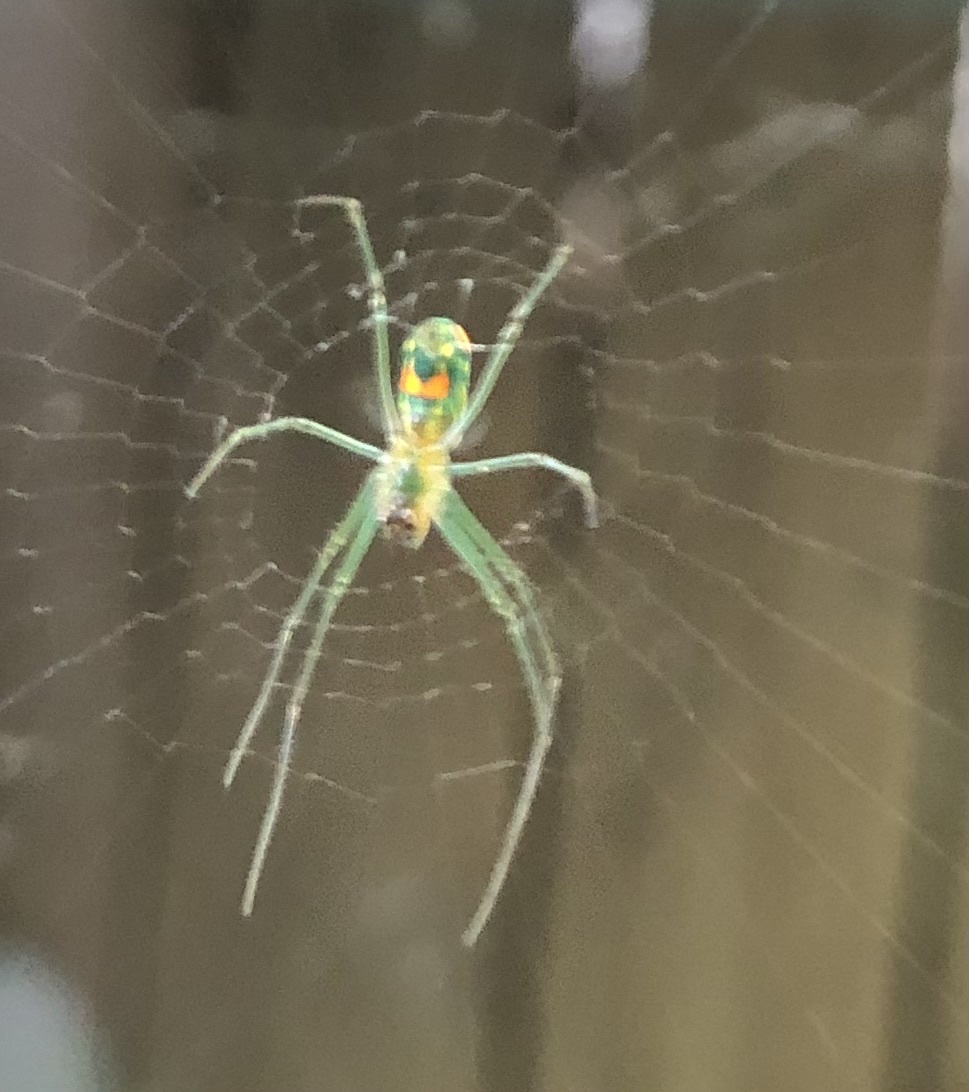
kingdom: Animalia
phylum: Arthropoda
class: Arachnida
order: Araneae
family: Tetragnathidae
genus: Leucauge
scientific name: Leucauge argyrobapta
